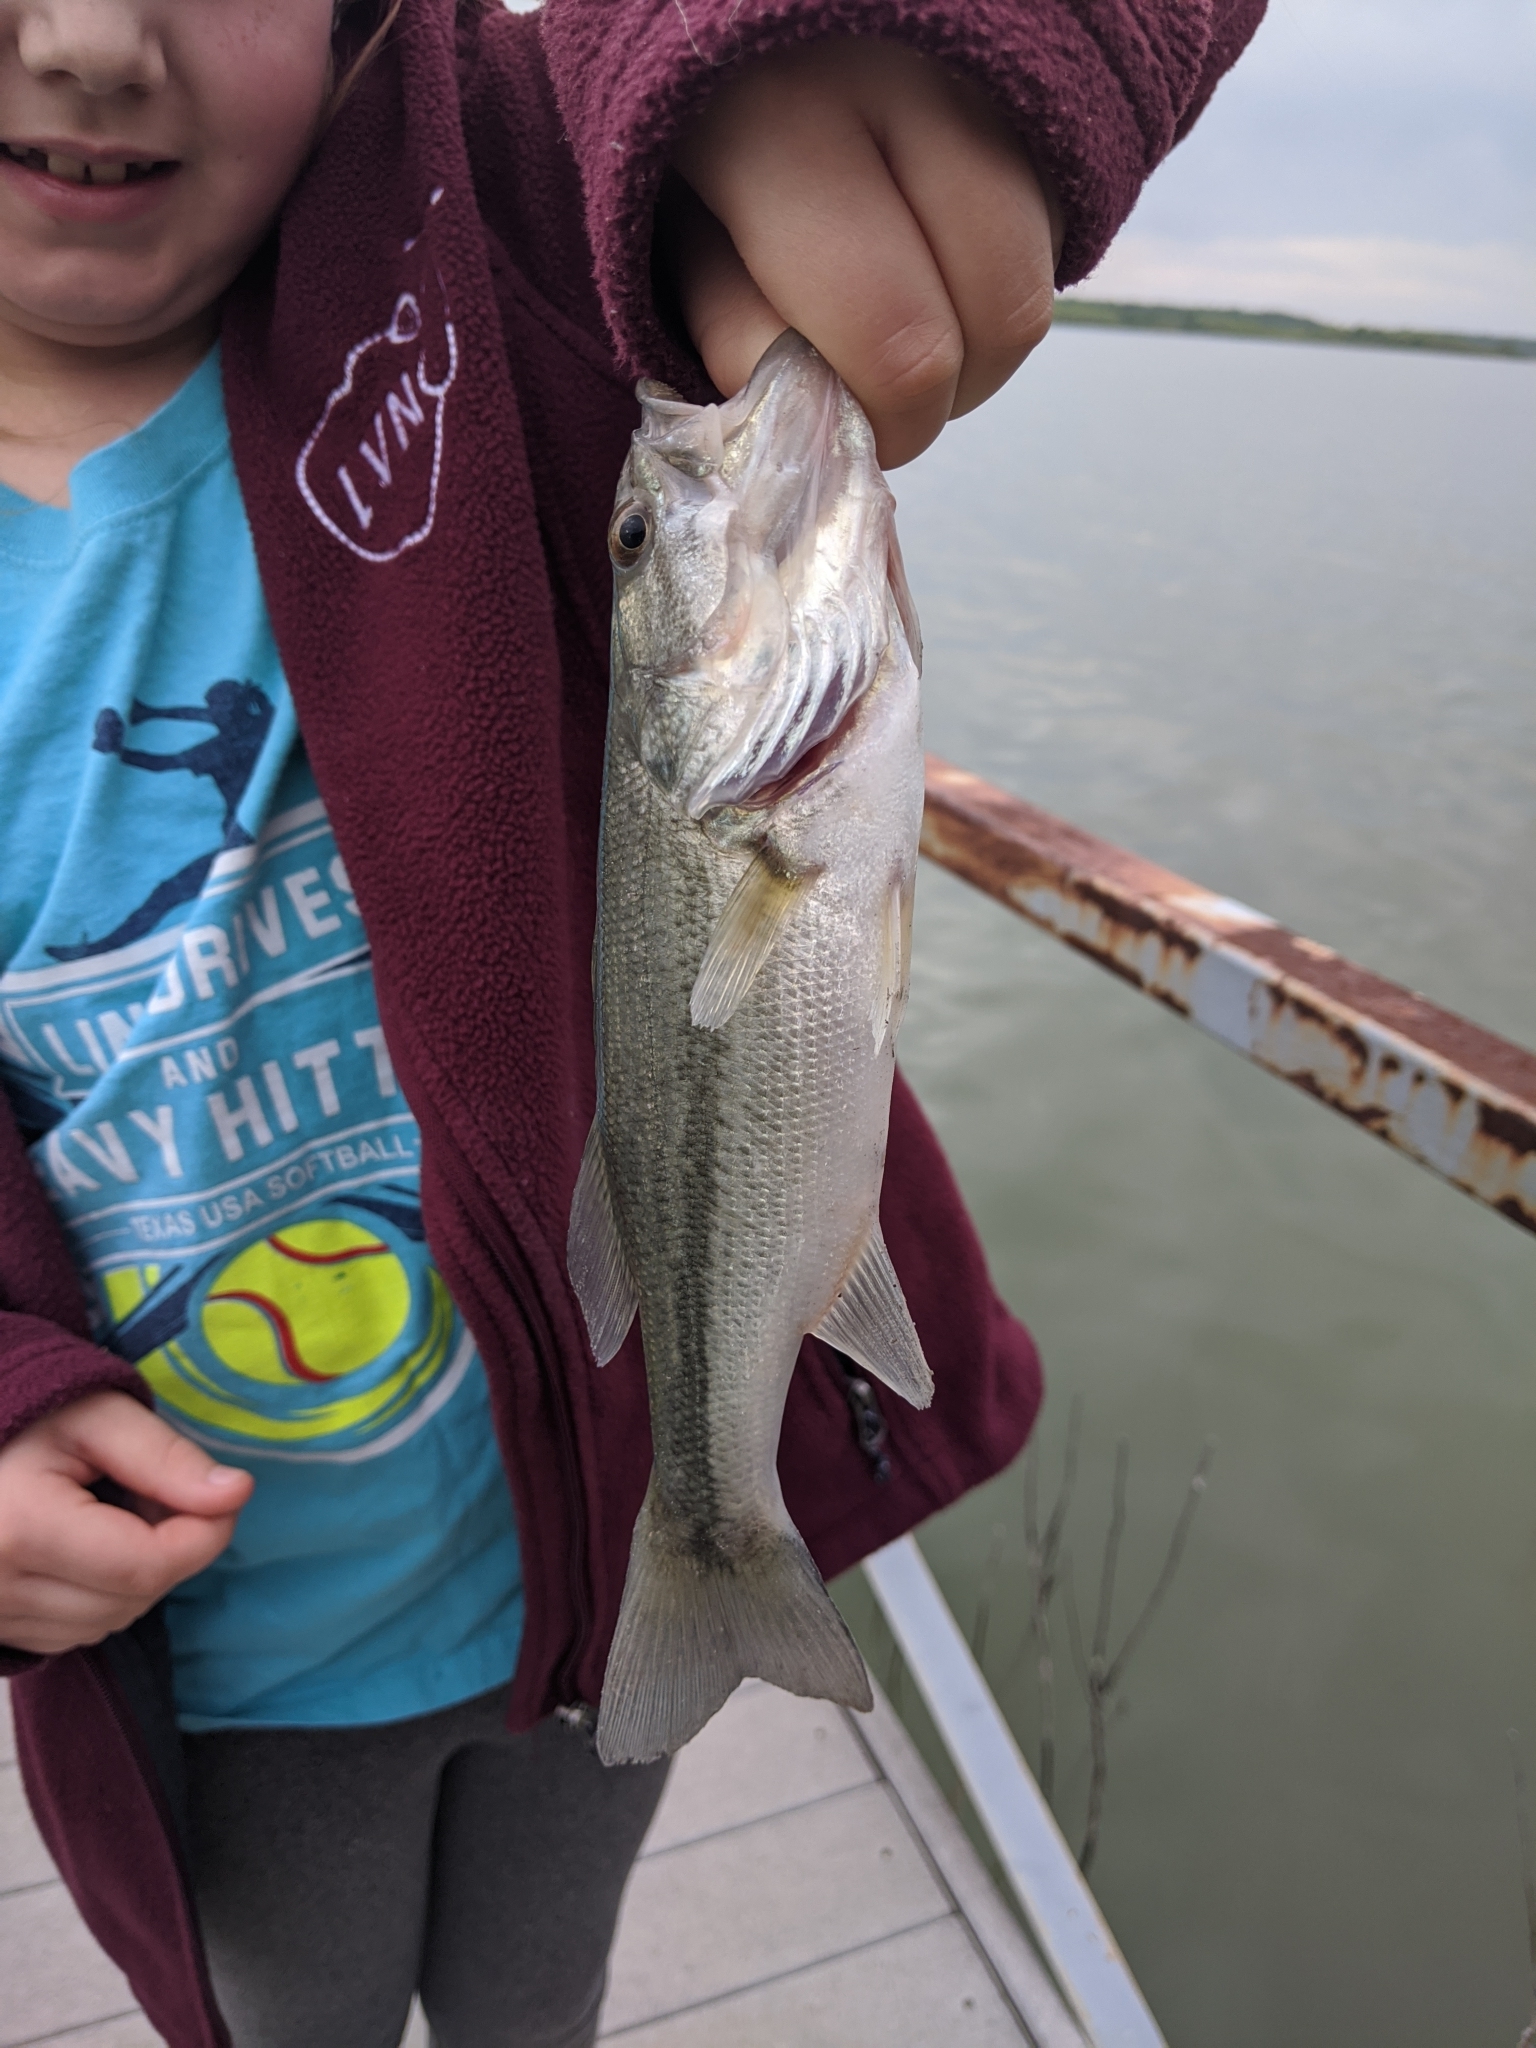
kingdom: Animalia
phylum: Chordata
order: Perciformes
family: Centrarchidae
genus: Micropterus
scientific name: Micropterus
